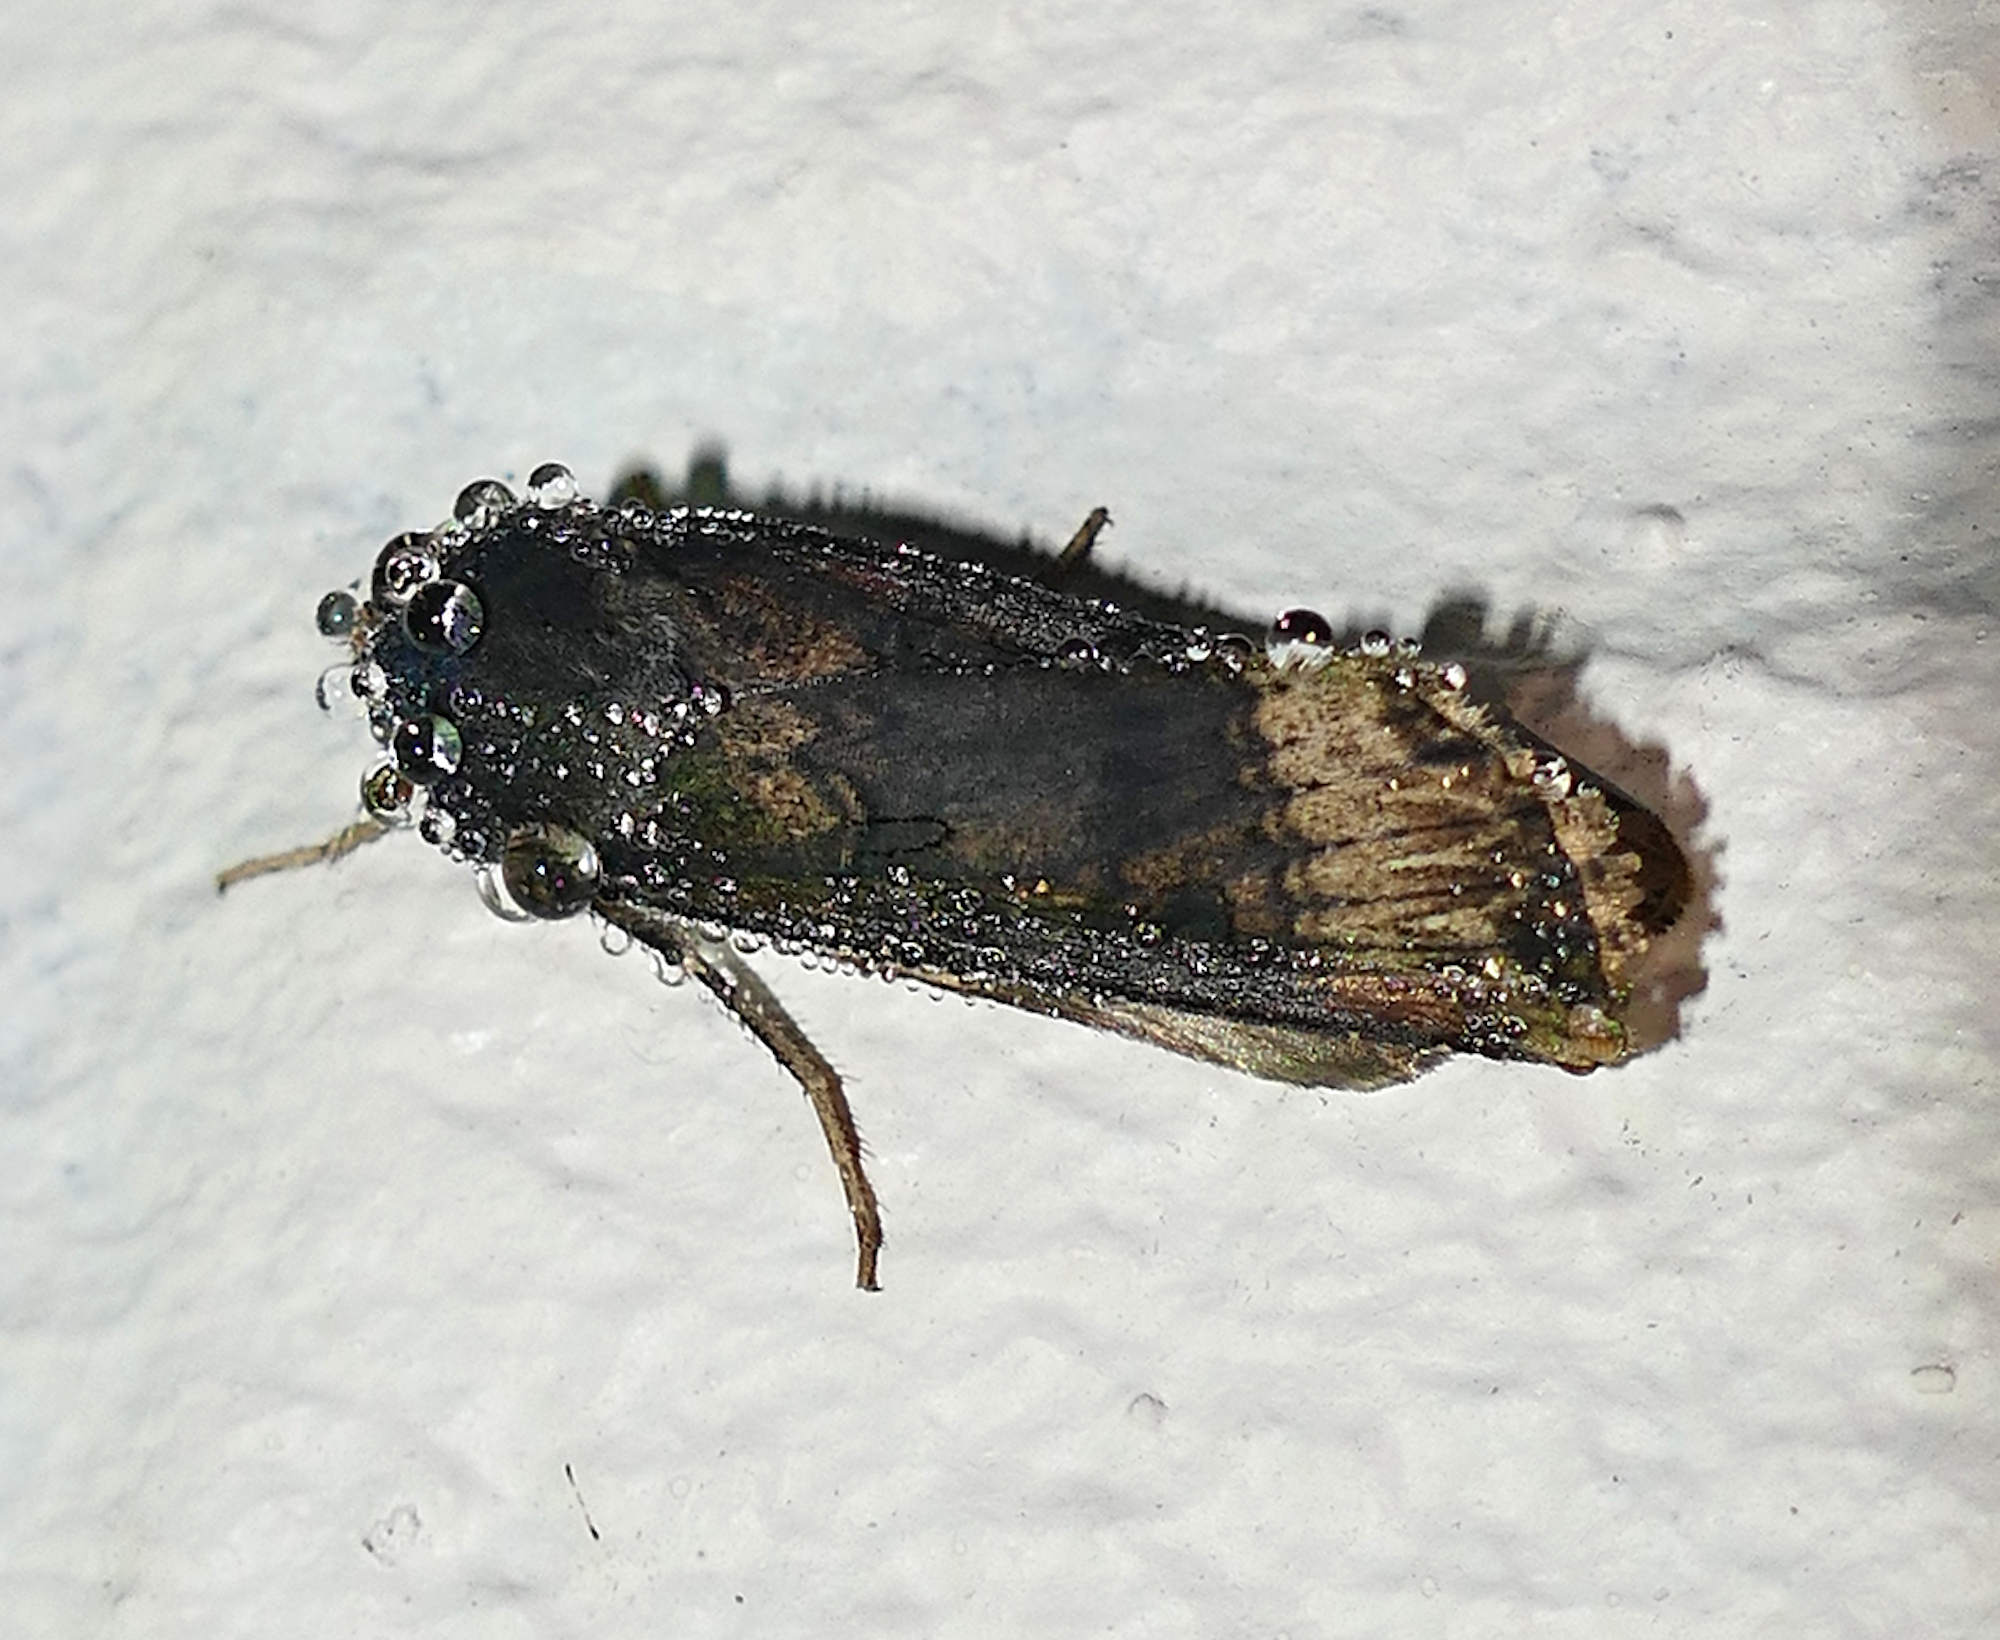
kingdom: Animalia
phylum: Arthropoda
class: Insecta
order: Lepidoptera
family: Noctuidae
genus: Agrotis
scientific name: Agrotis ipsilon
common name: Dark sword-grass
